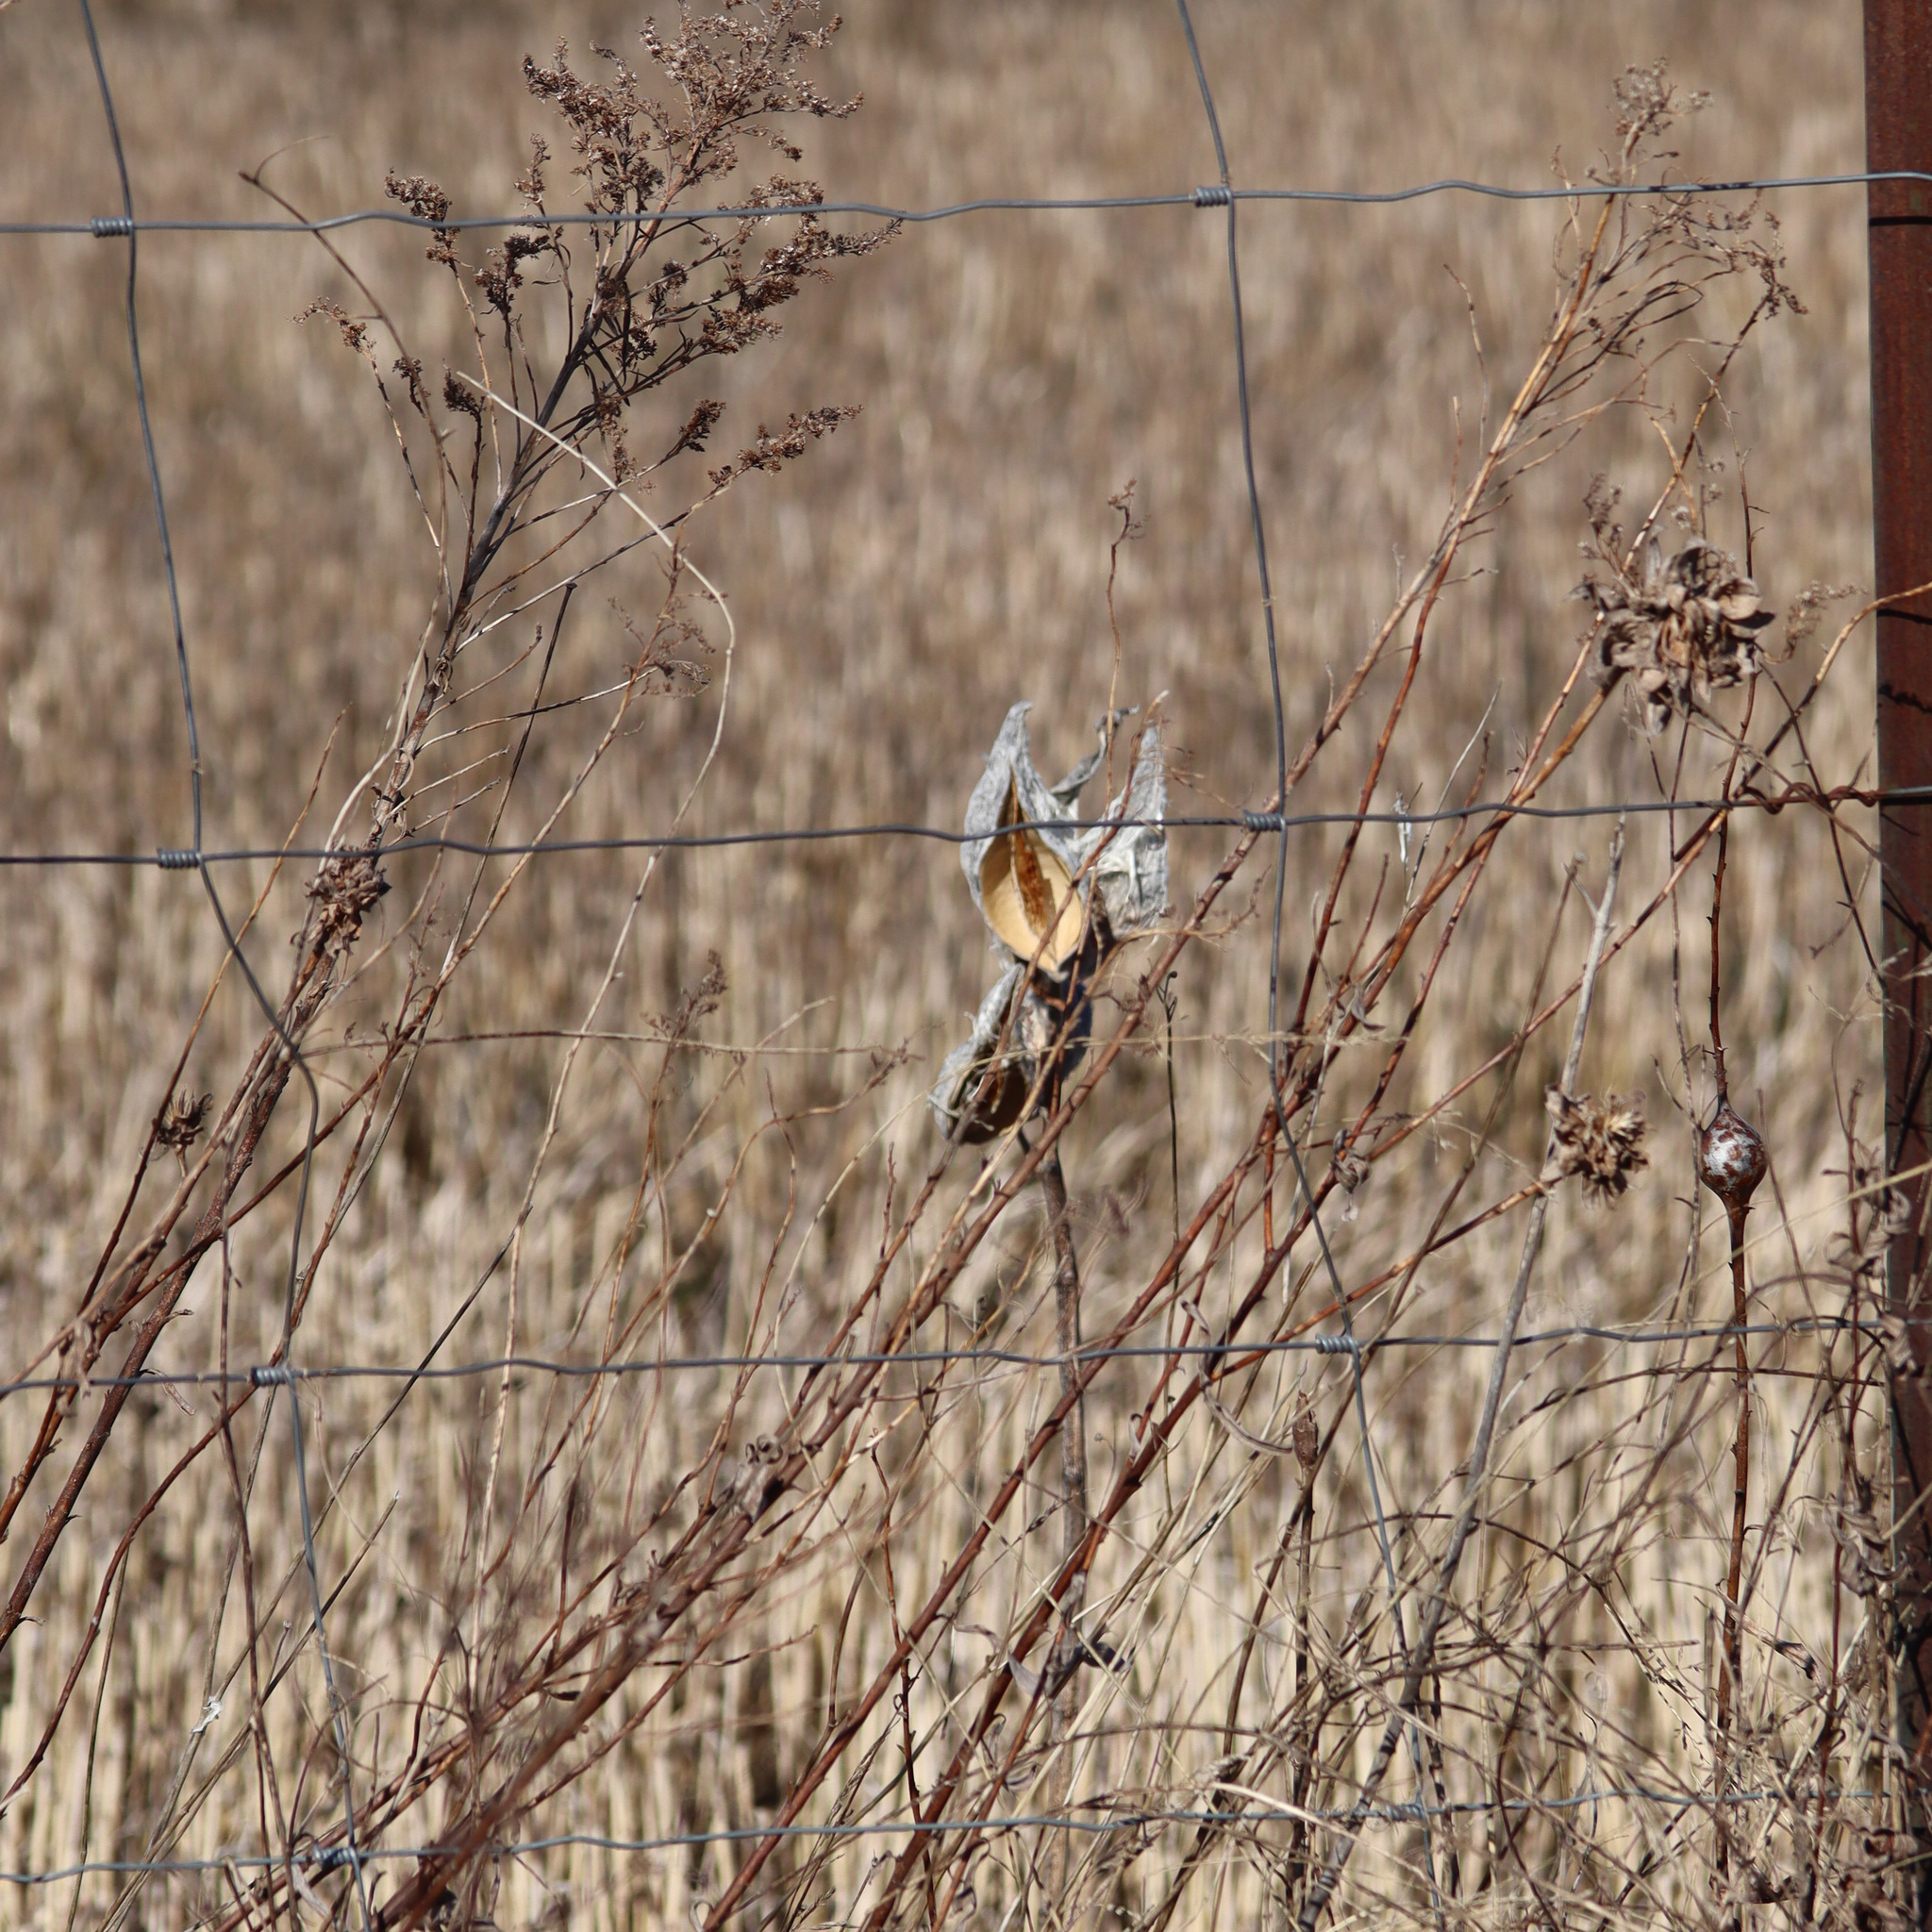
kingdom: Plantae
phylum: Tracheophyta
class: Magnoliopsida
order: Gentianales
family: Apocynaceae
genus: Asclepias
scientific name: Asclepias syriaca
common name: Common milkweed
